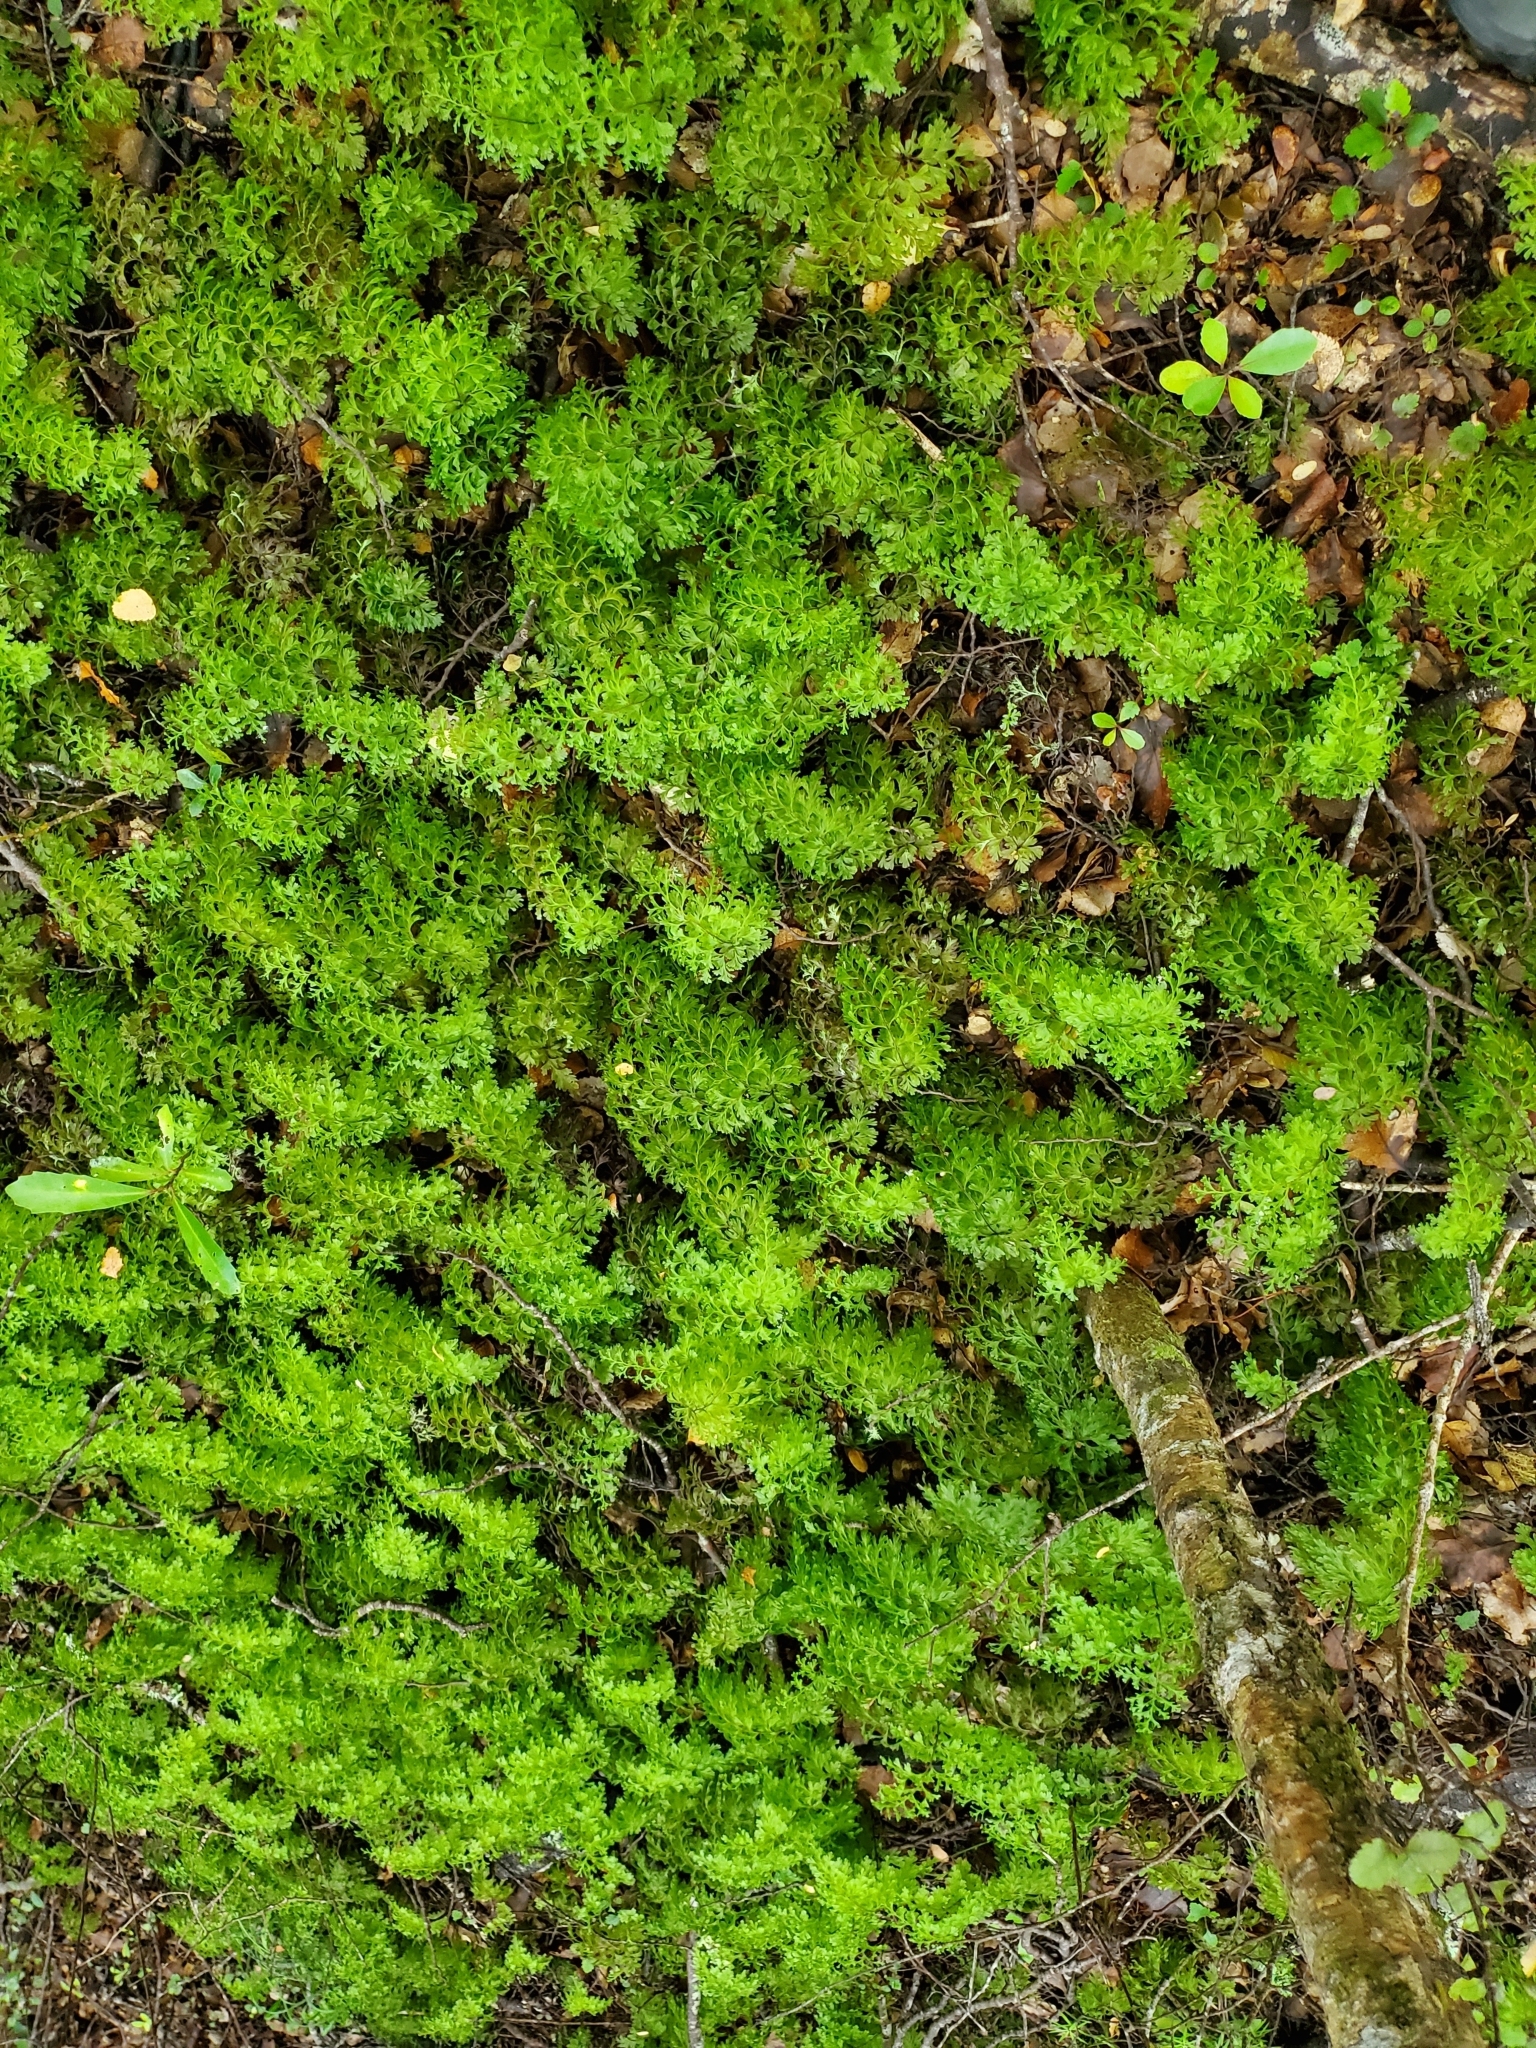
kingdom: Plantae
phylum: Tracheophyta
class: Polypodiopsida
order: Hymenophyllales
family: Hymenophyllaceae
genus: Hymenophyllum
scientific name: Hymenophyllum demissum
